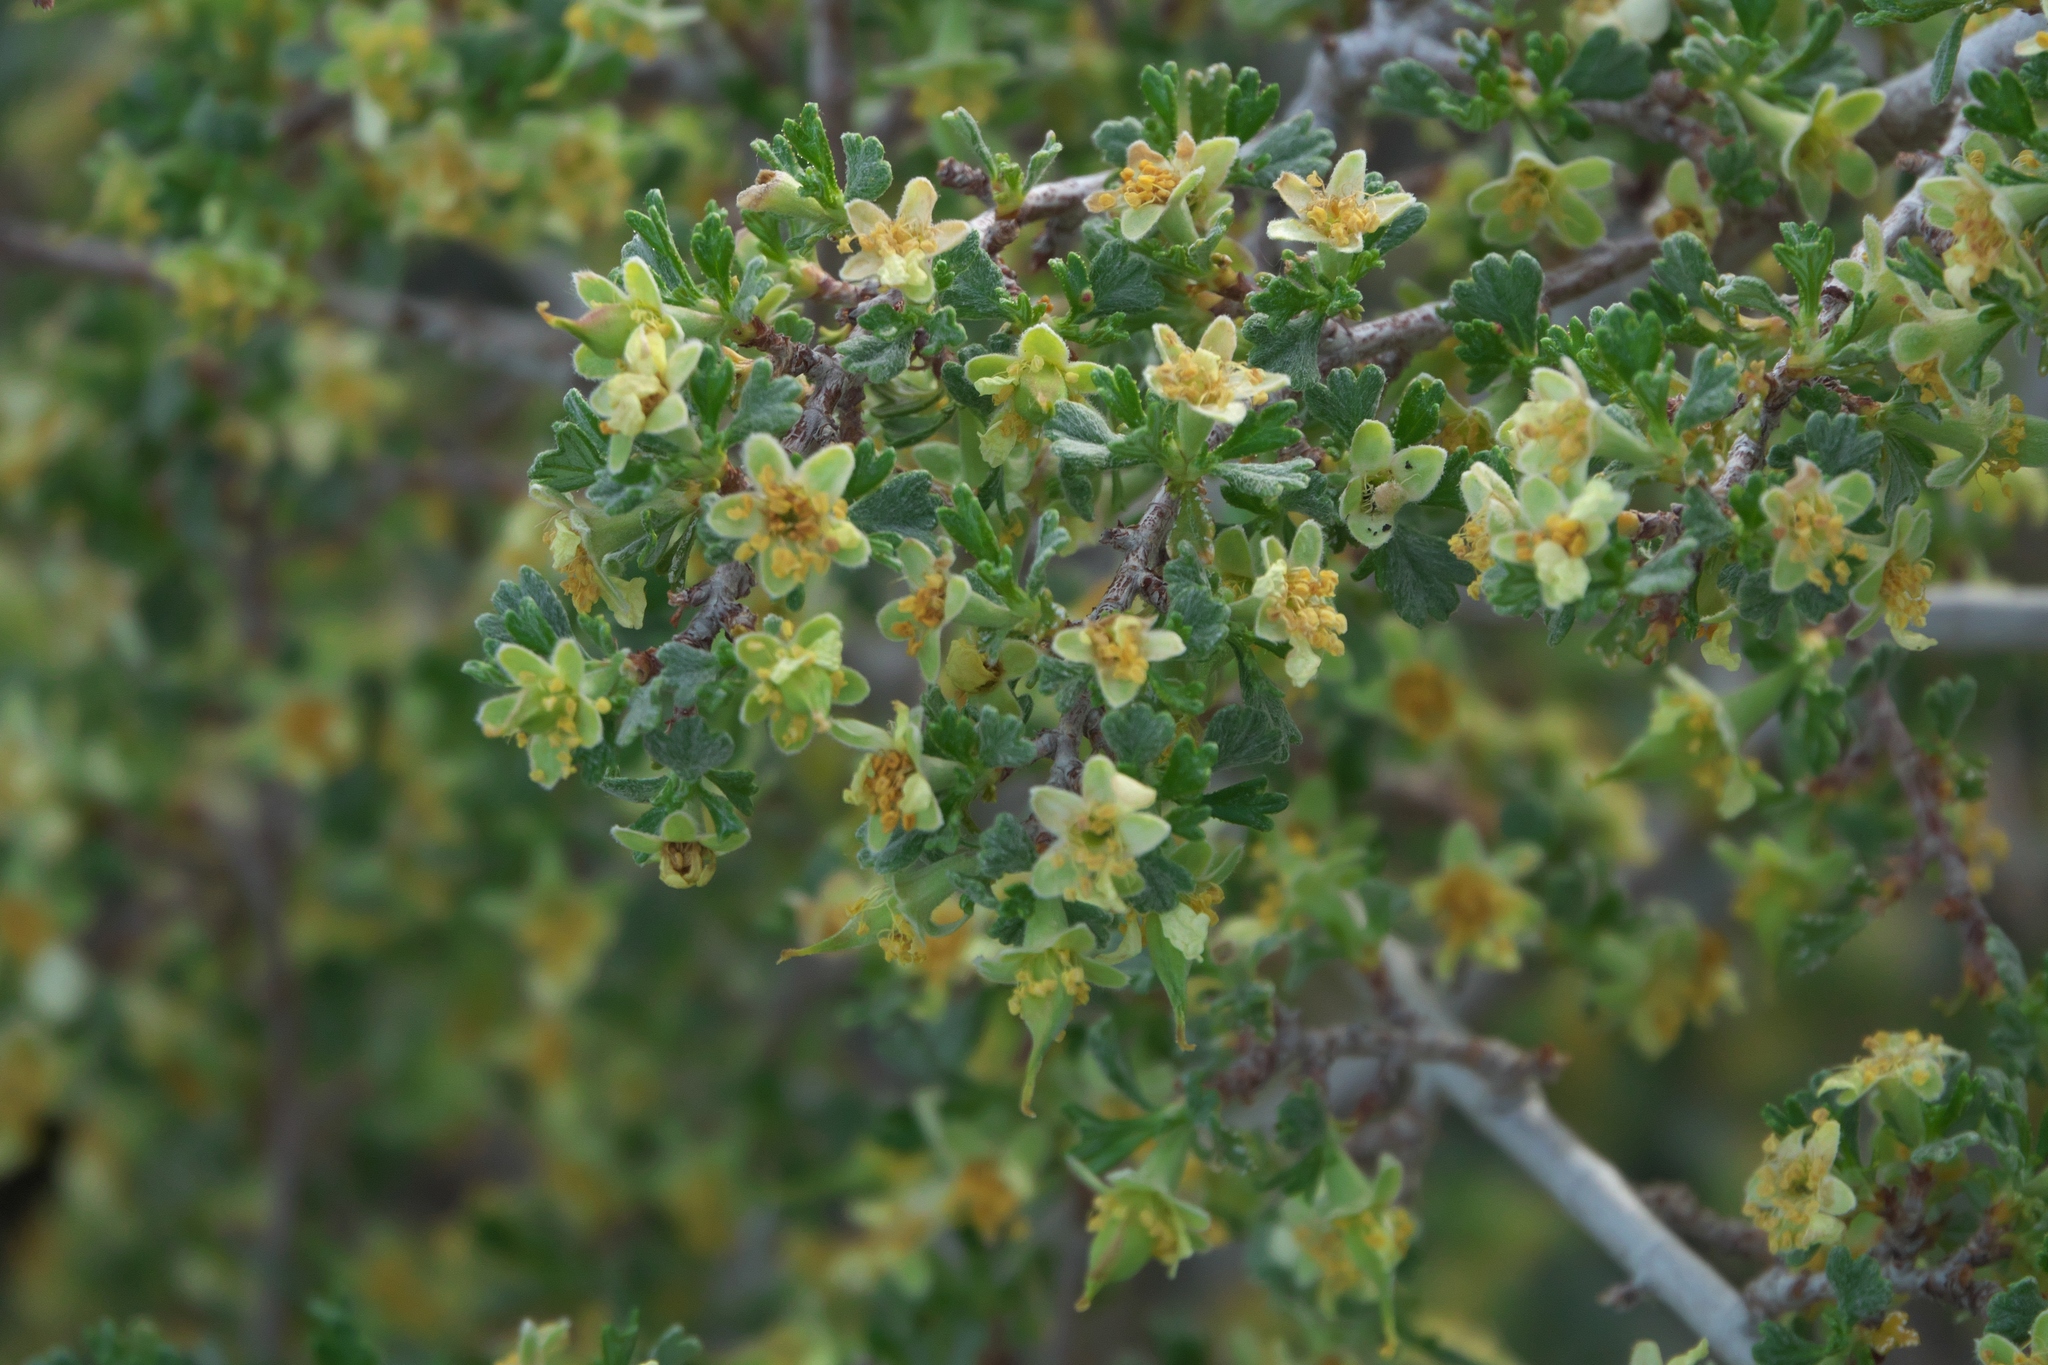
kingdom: Plantae
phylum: Tracheophyta
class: Magnoliopsida
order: Rosales
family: Rosaceae
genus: Purshia
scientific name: Purshia tridentata
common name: Antelope bitterbrush
